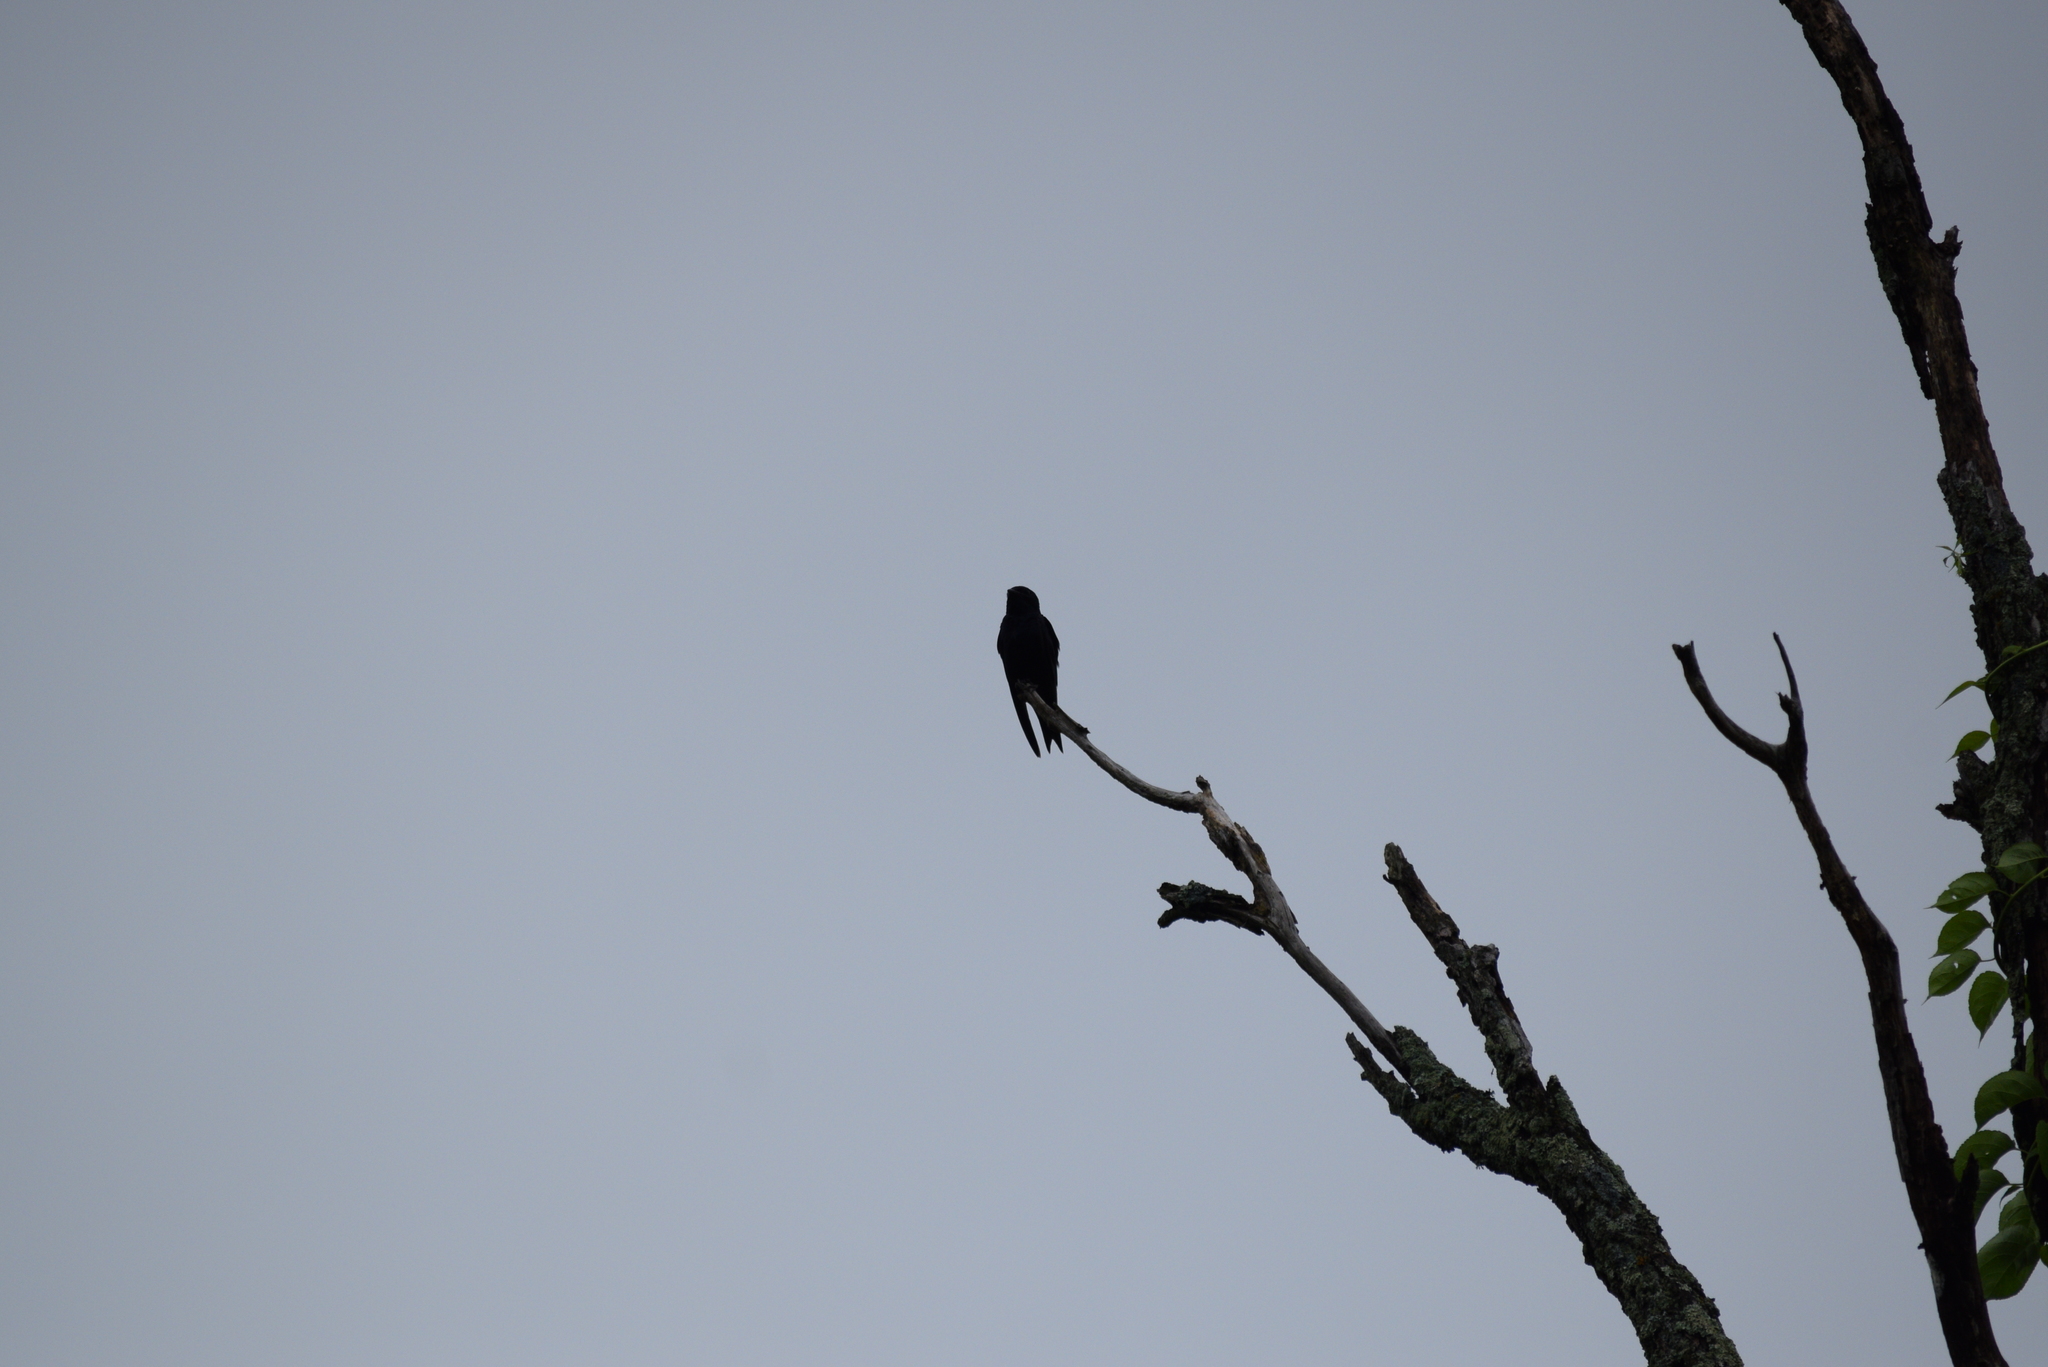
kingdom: Animalia
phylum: Chordata
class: Aves
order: Passeriformes
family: Hirundinidae
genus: Progne
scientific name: Progne subis
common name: Purple martin
